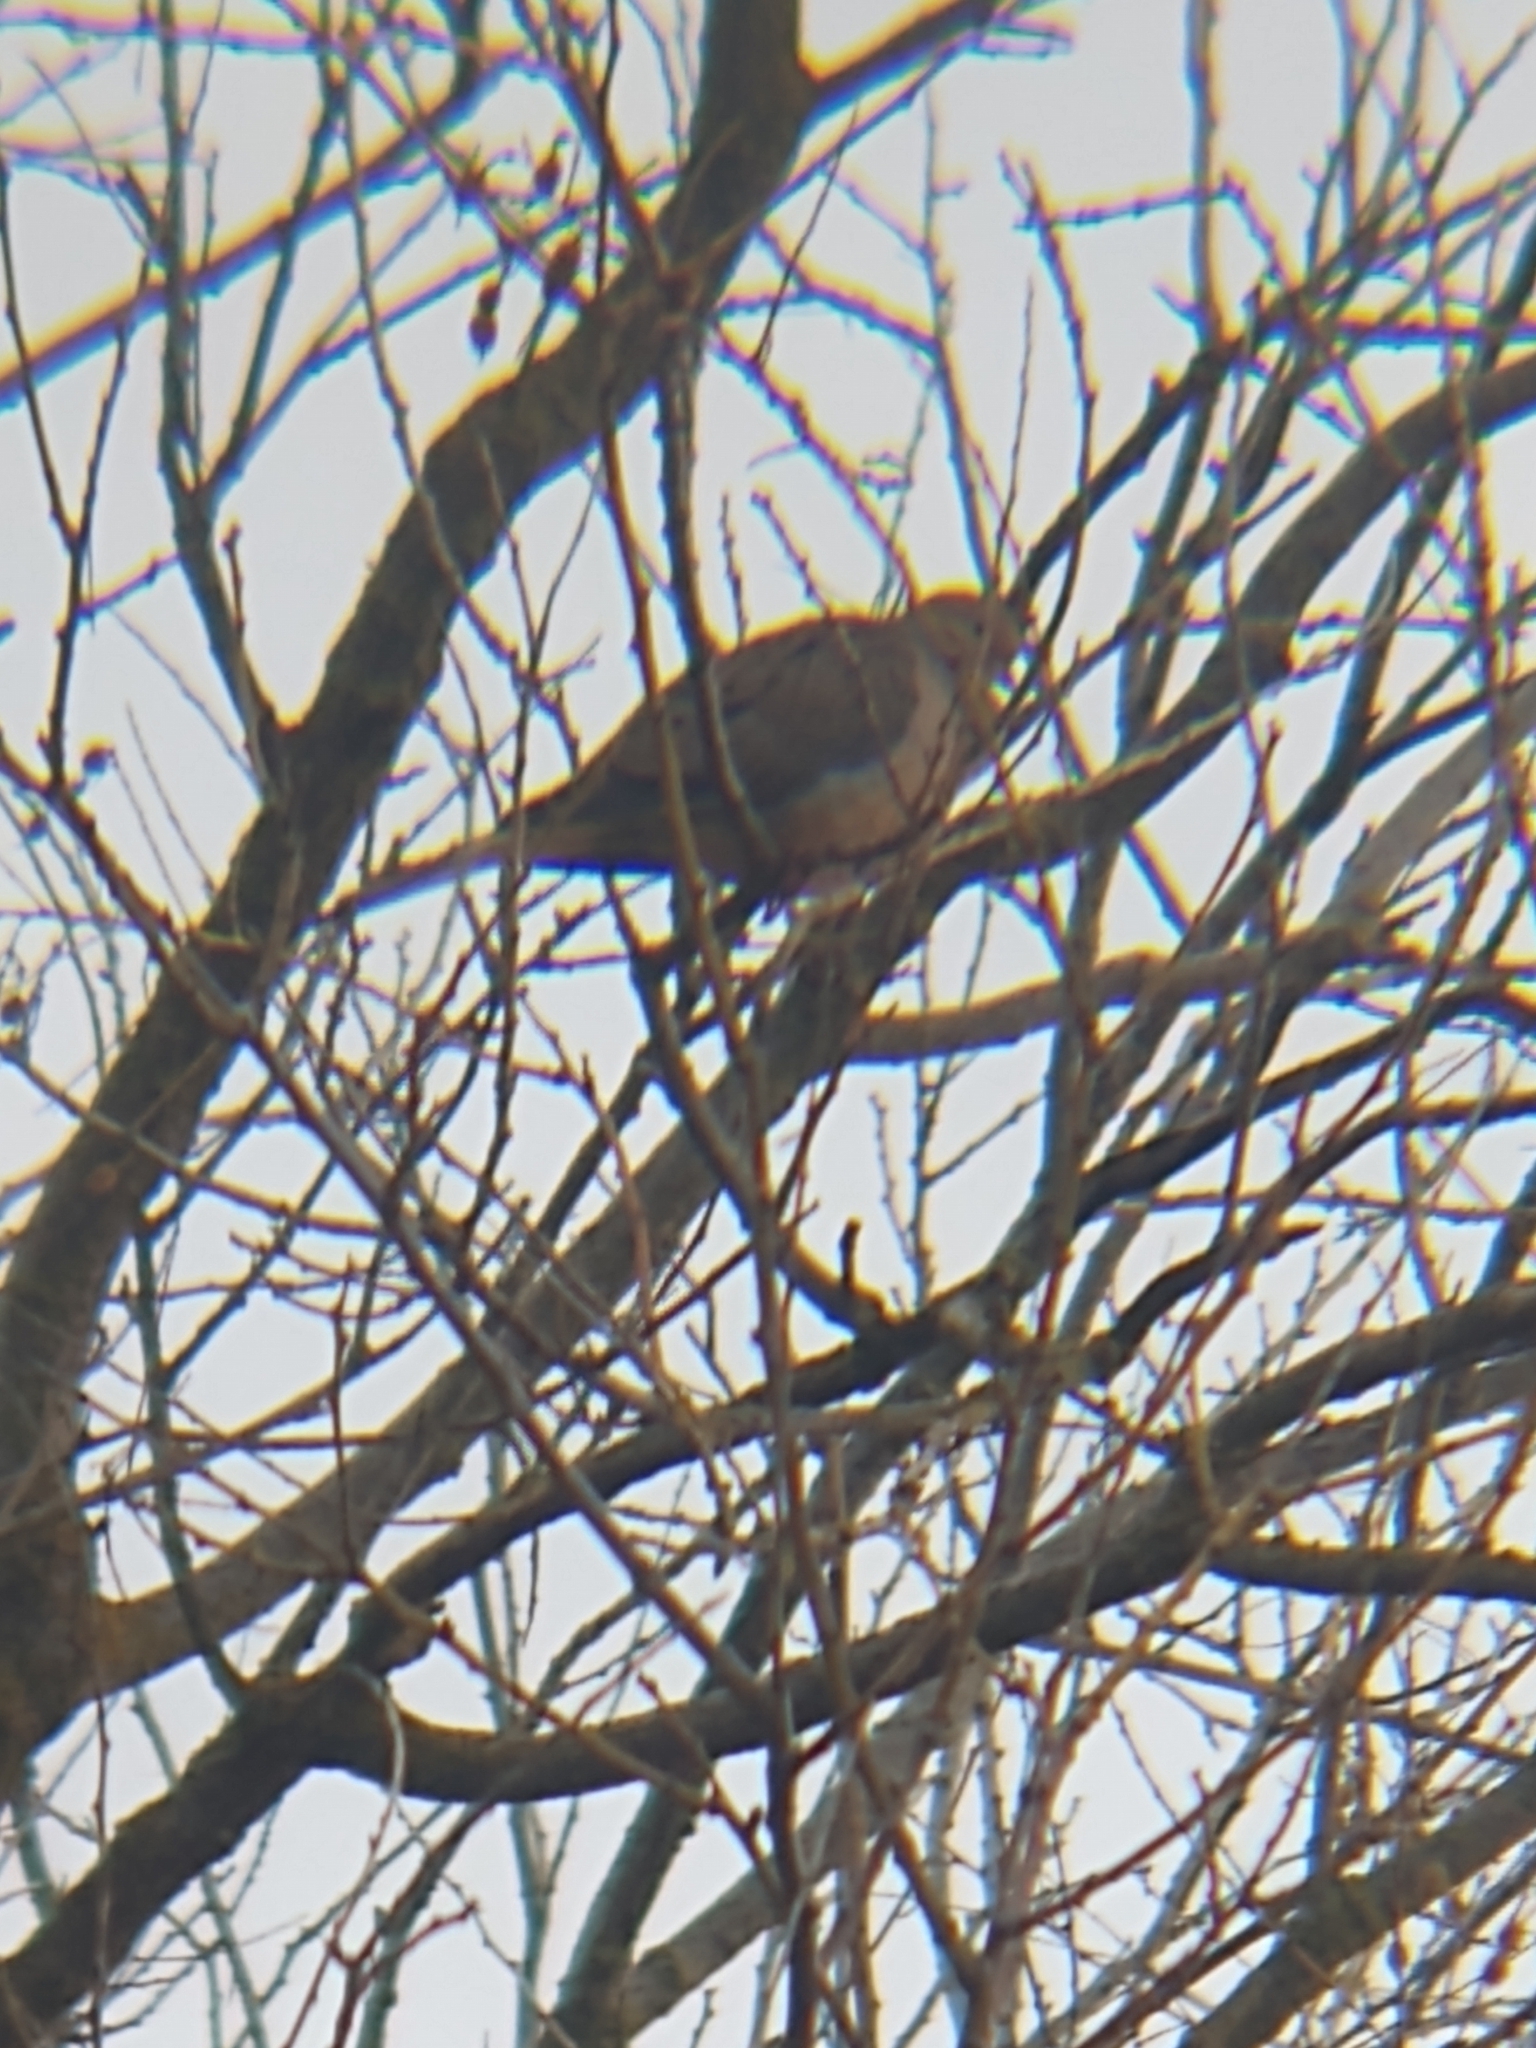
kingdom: Animalia
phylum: Chordata
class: Aves
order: Columbiformes
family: Columbidae
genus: Zenaida
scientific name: Zenaida macroura
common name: Mourning dove
